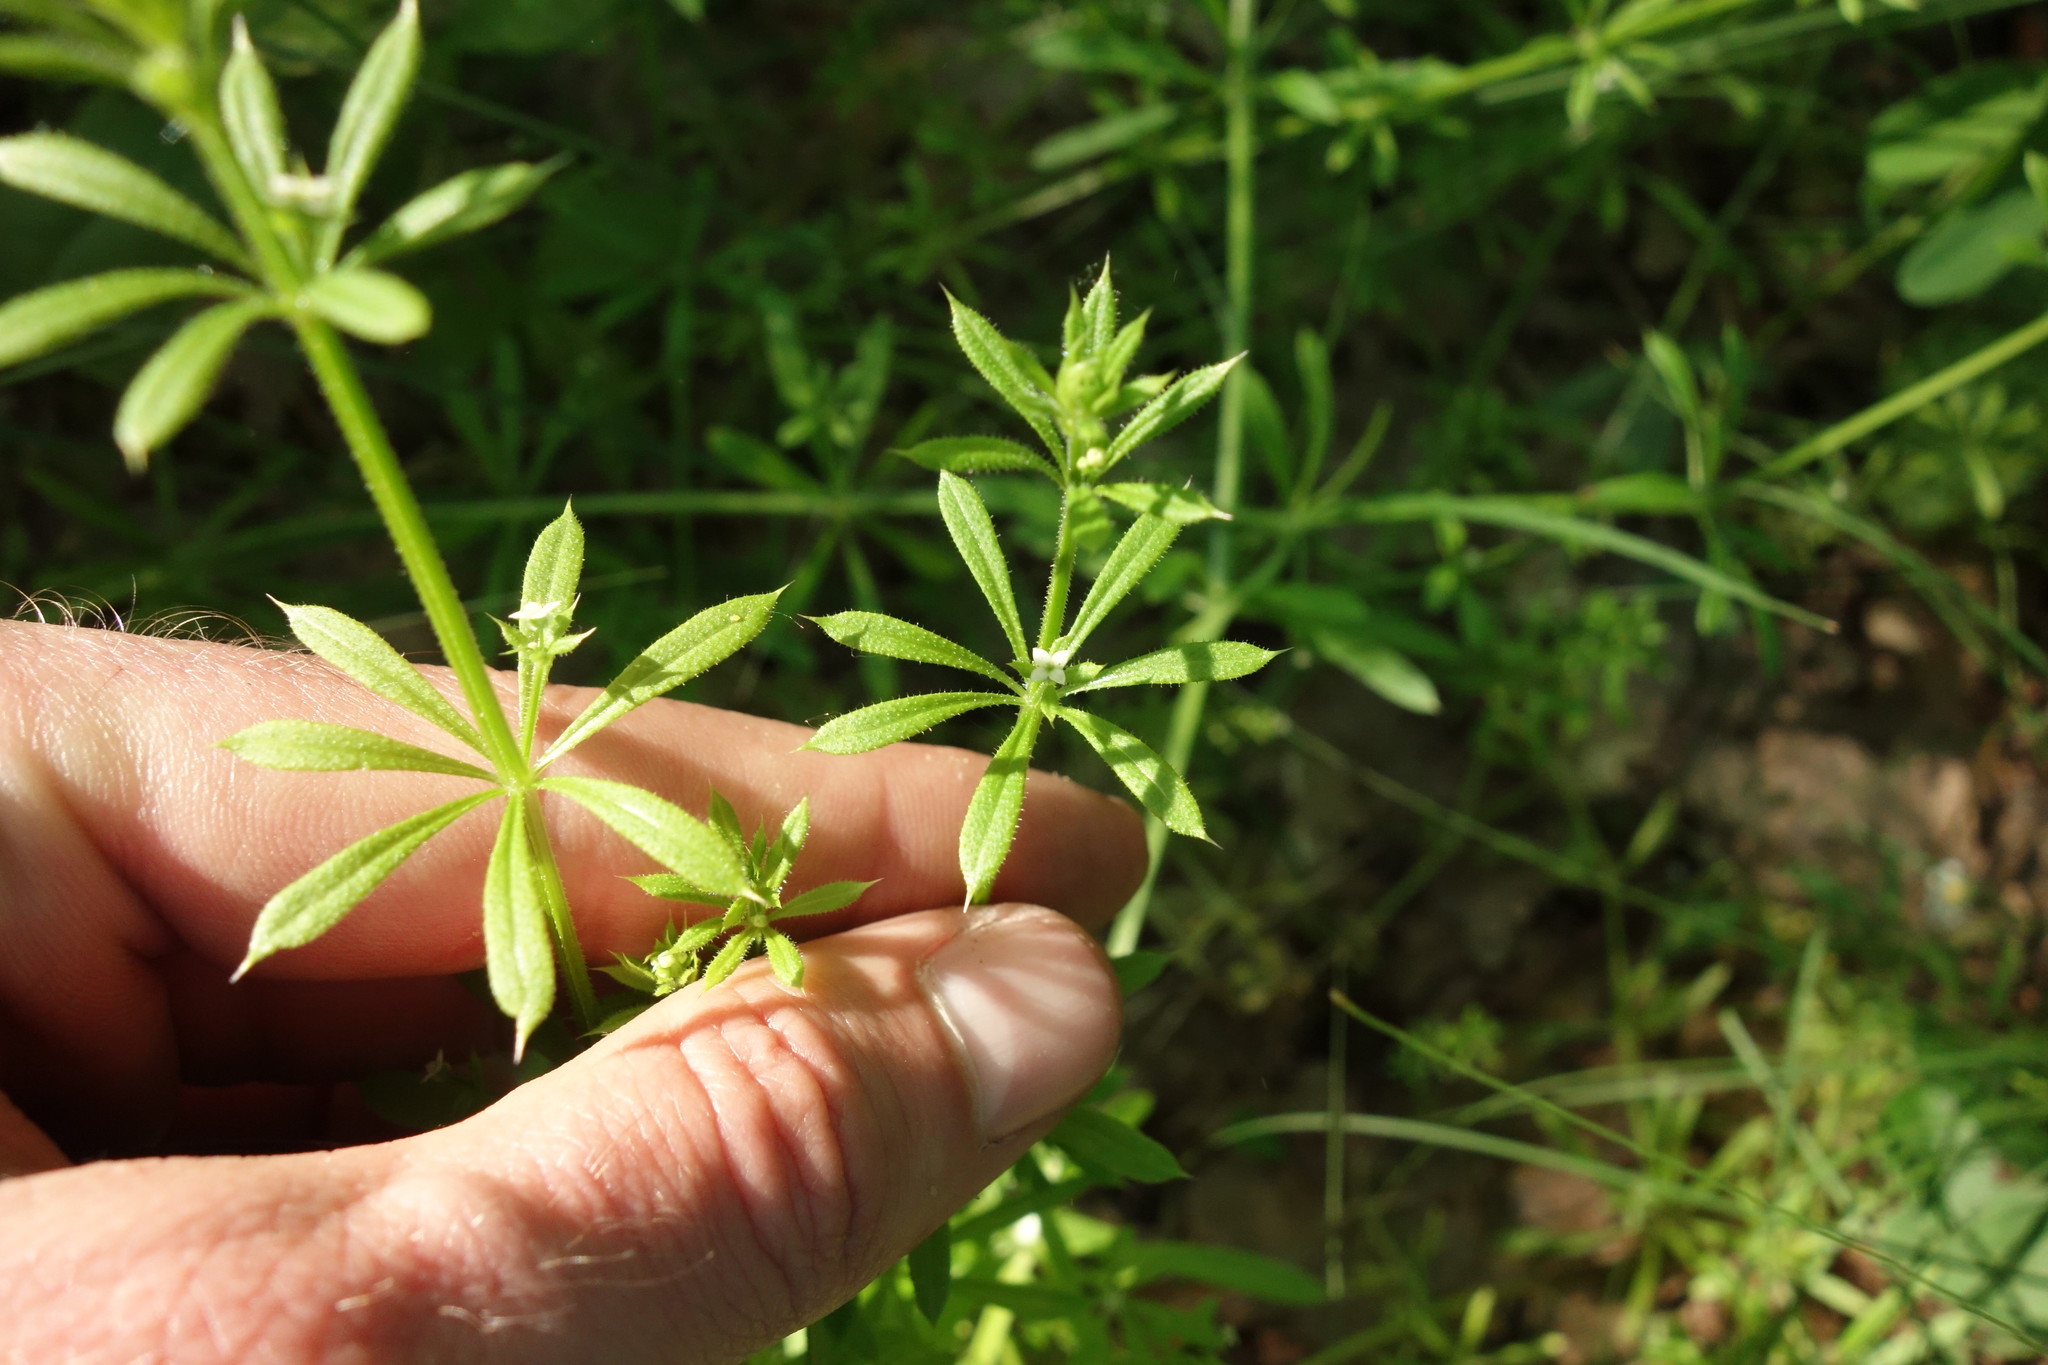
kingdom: Plantae
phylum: Tracheophyta
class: Magnoliopsida
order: Gentianales
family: Rubiaceae
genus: Galium
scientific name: Galium aparine
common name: Cleavers
